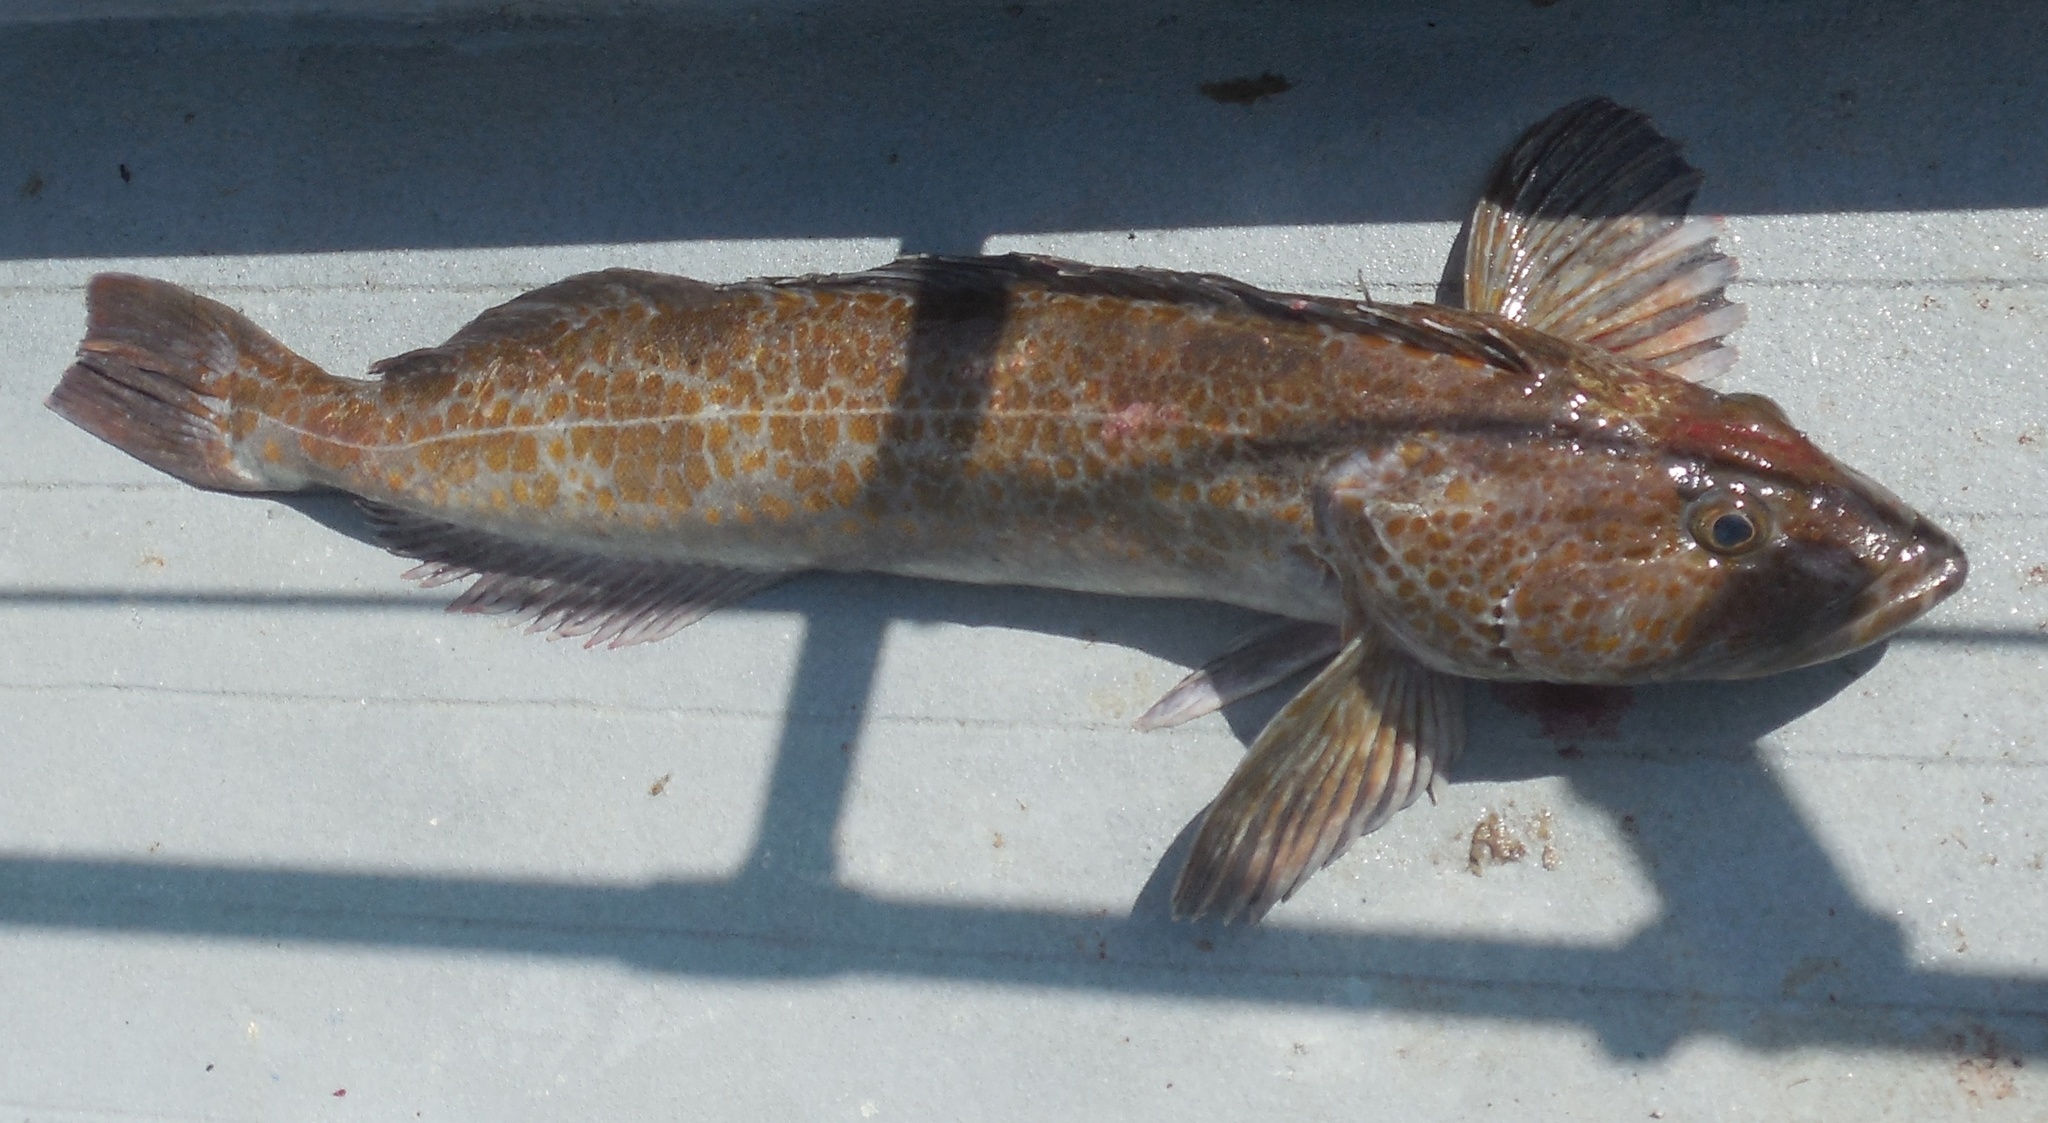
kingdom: Animalia
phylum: Chordata
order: Scorpaeniformes
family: Hexagrammidae
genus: Ophiodon
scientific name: Ophiodon elongatus
